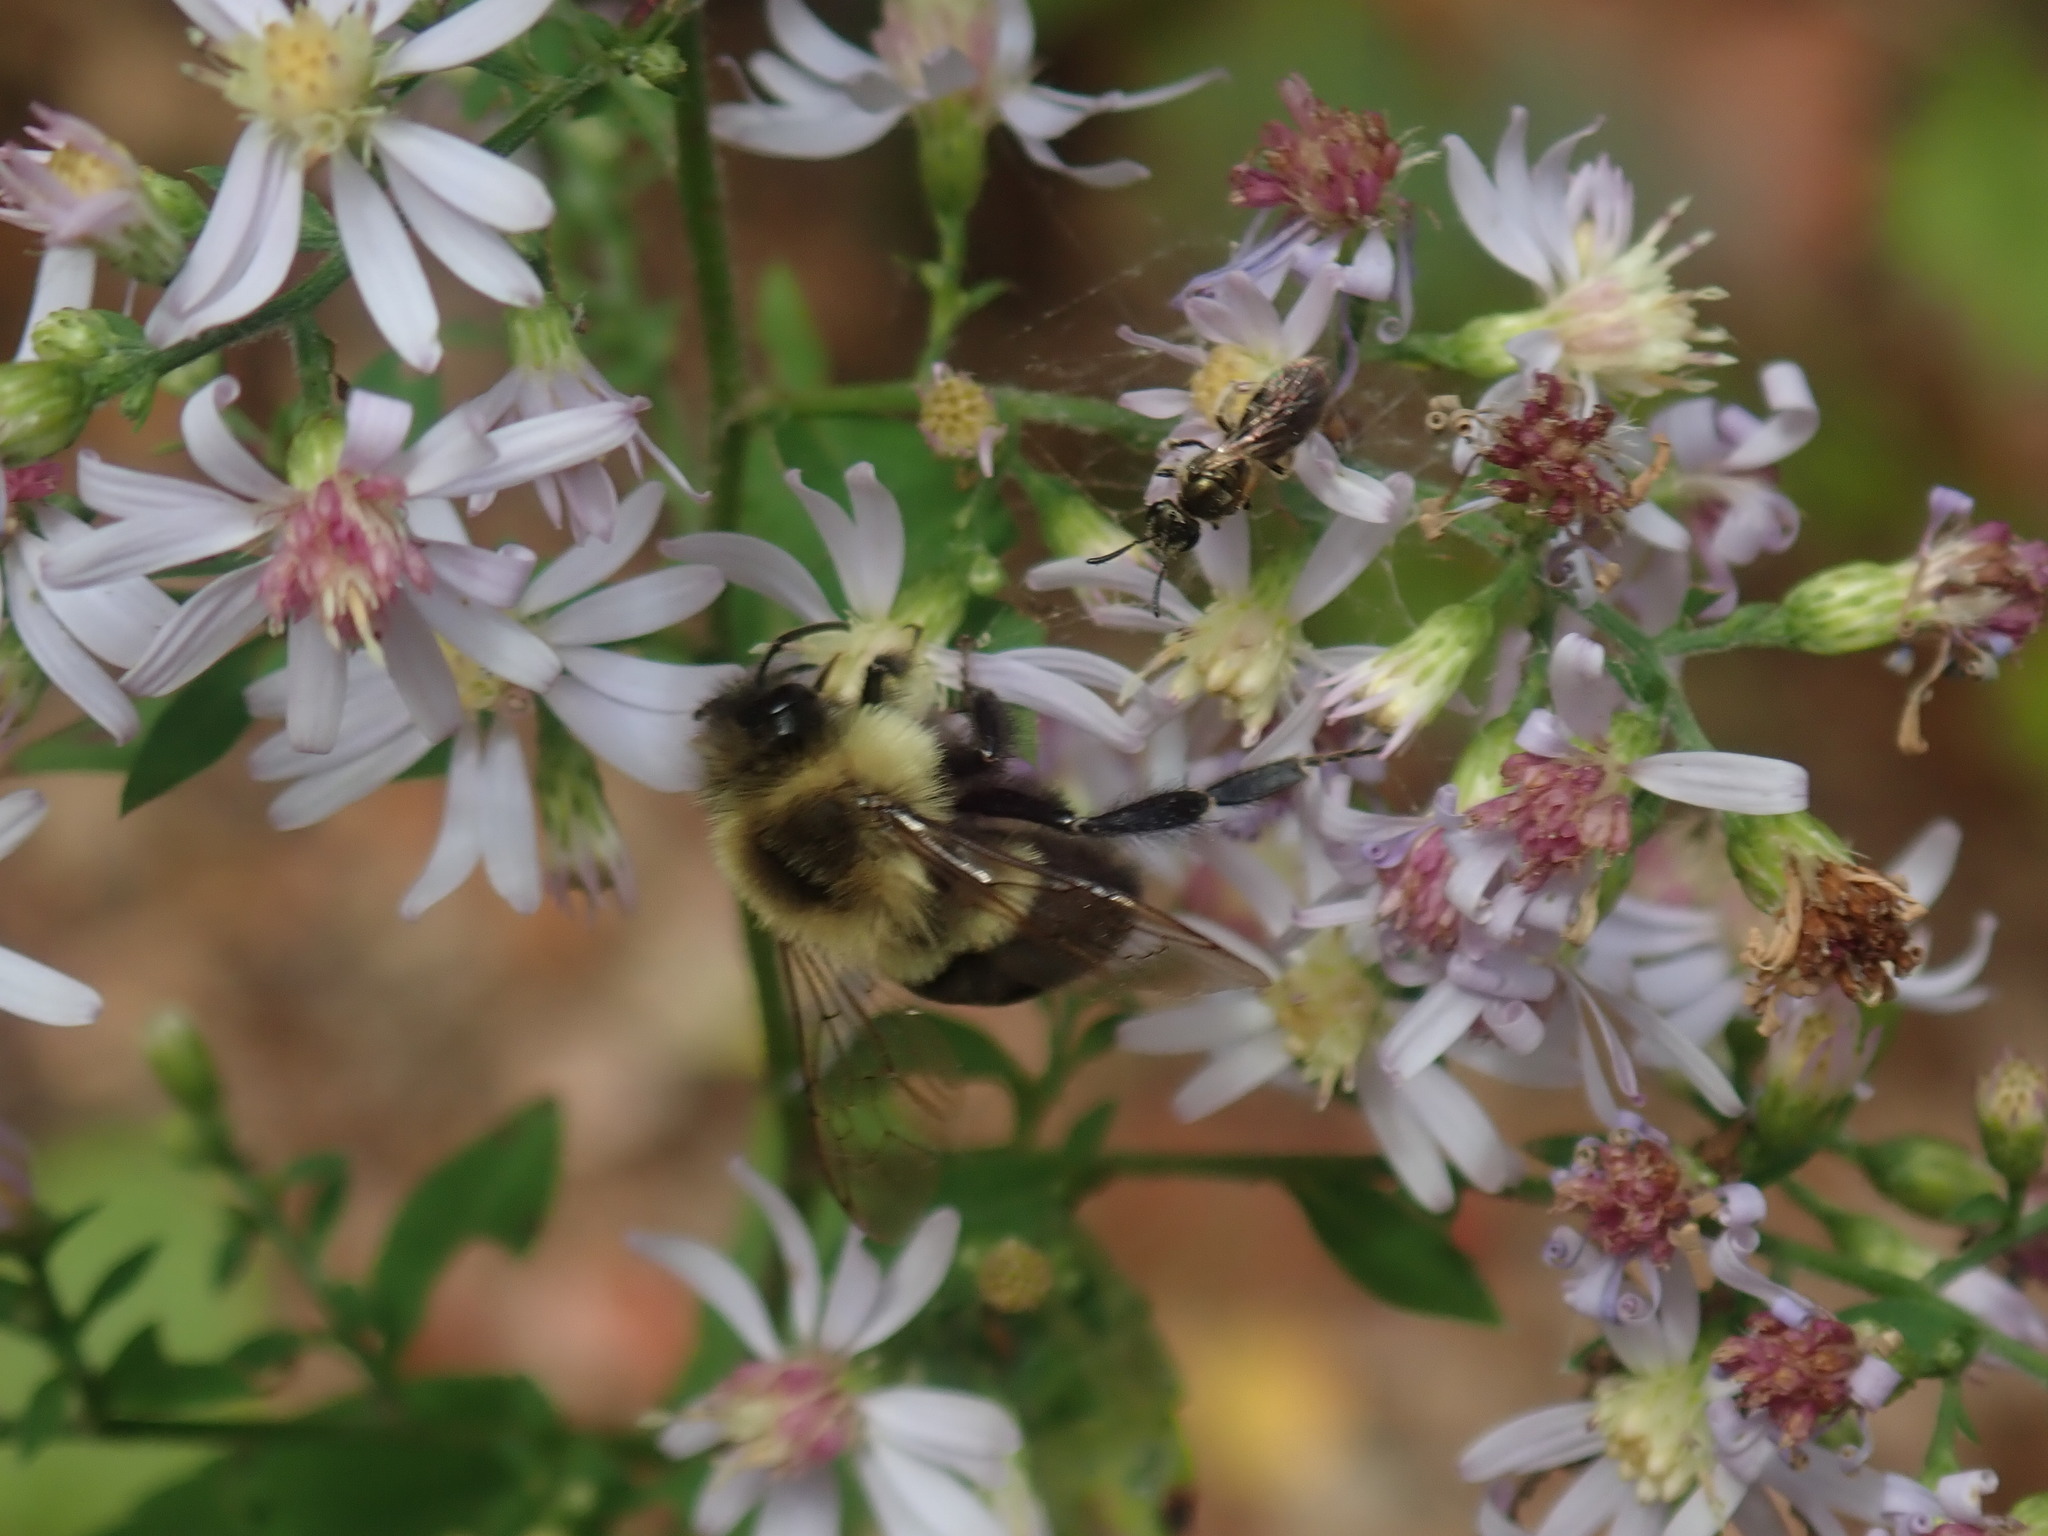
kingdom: Animalia
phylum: Arthropoda
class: Insecta
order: Hymenoptera
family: Apidae
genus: Bombus
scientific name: Bombus impatiens
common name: Common eastern bumble bee
